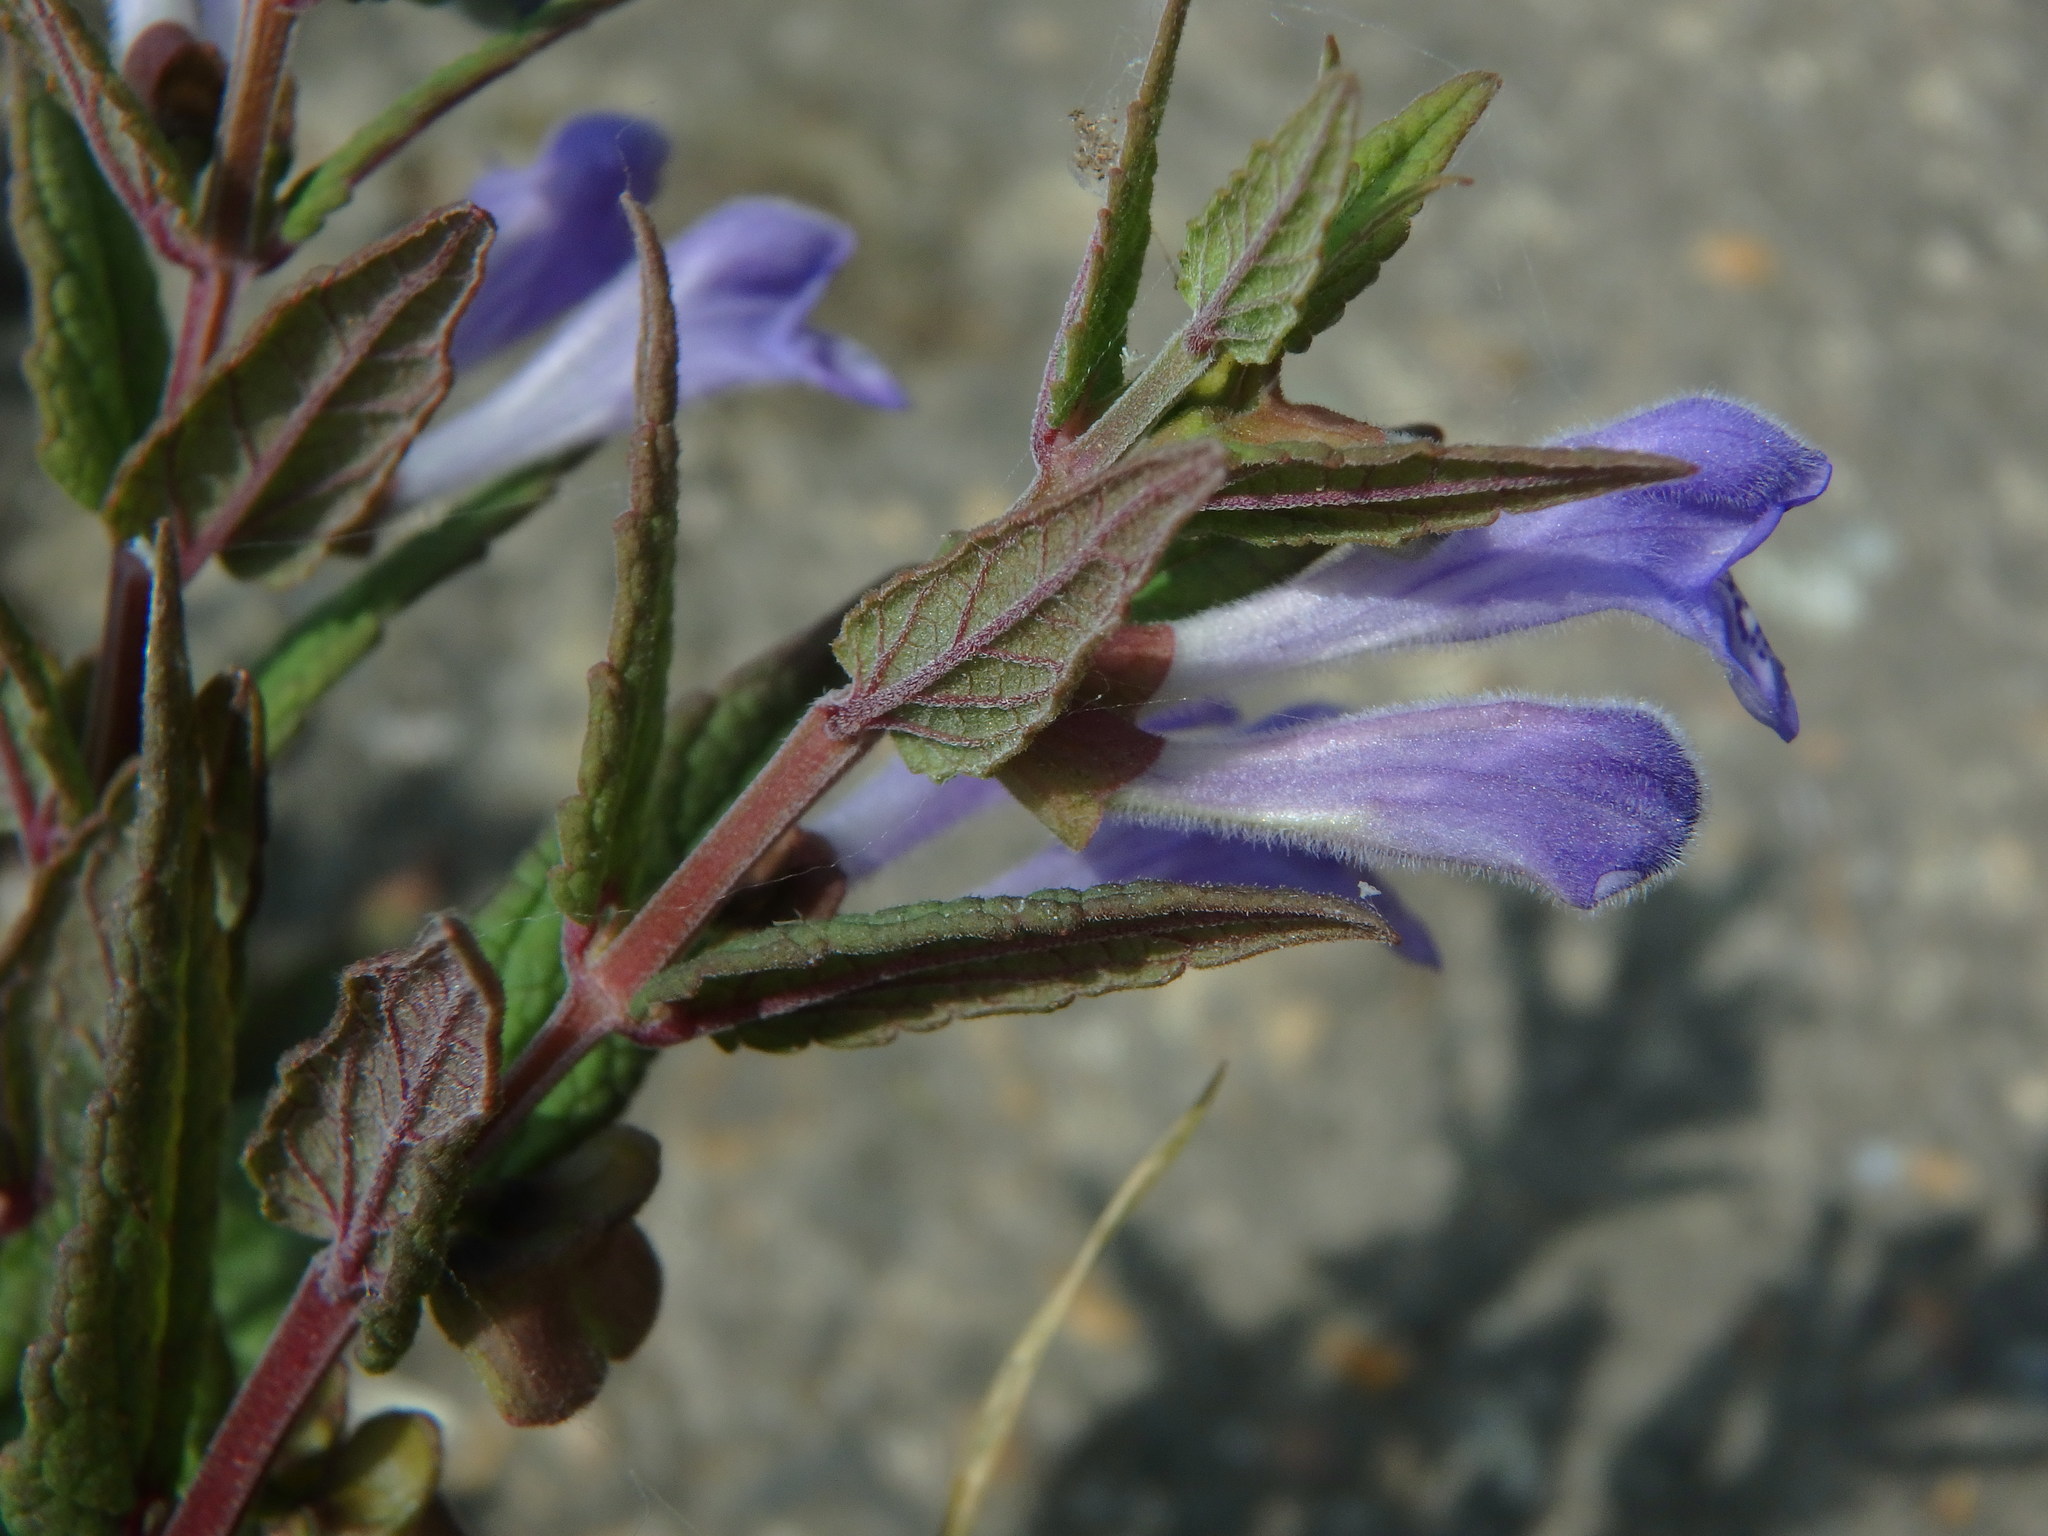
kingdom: Plantae
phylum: Tracheophyta
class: Magnoliopsida
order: Lamiales
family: Lamiaceae
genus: Scutellaria
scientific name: Scutellaria galericulata
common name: Skullcap
